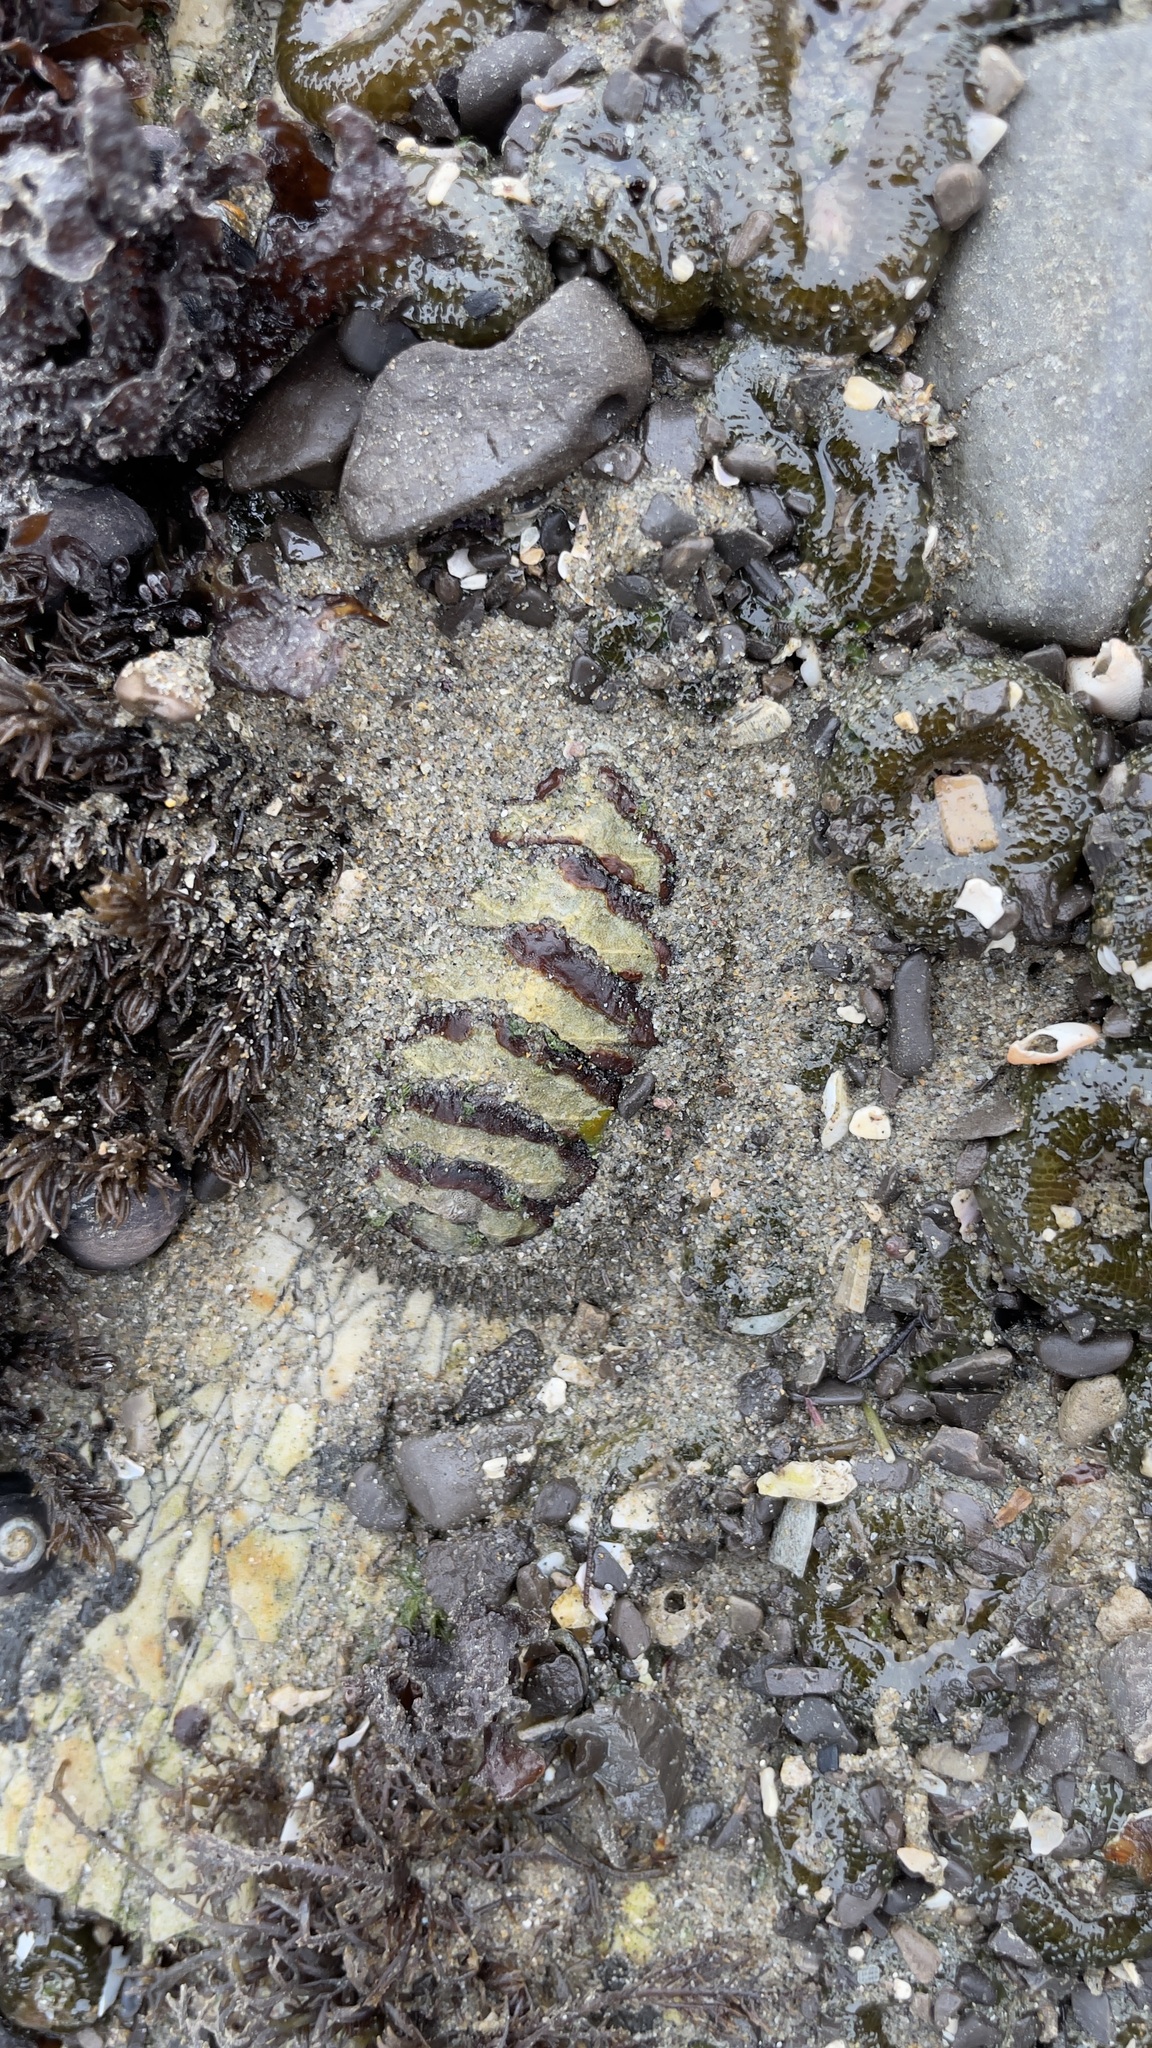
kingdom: Animalia
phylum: Mollusca
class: Polyplacophora
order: Chitonida
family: Mopaliidae
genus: Mopalia
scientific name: Mopalia muscosa
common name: Mossy chiton
